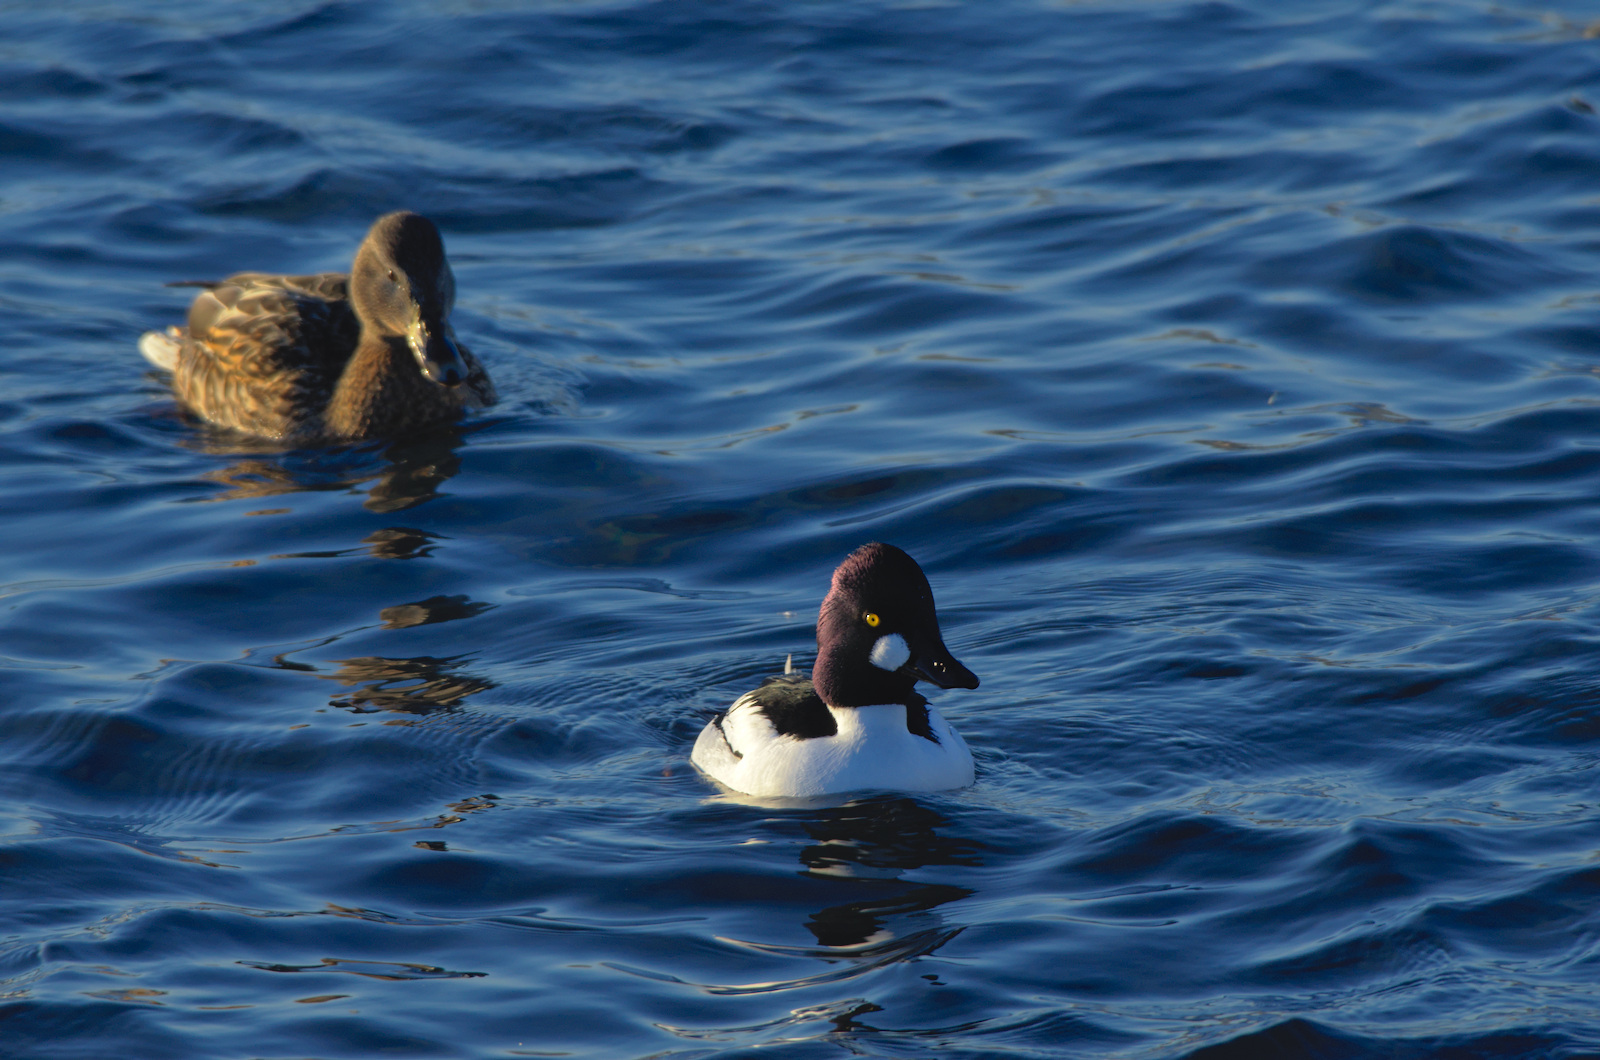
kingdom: Animalia
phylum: Chordata
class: Aves
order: Anseriformes
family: Anatidae
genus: Bucephala
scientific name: Bucephala clangula
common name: Common goldeneye
